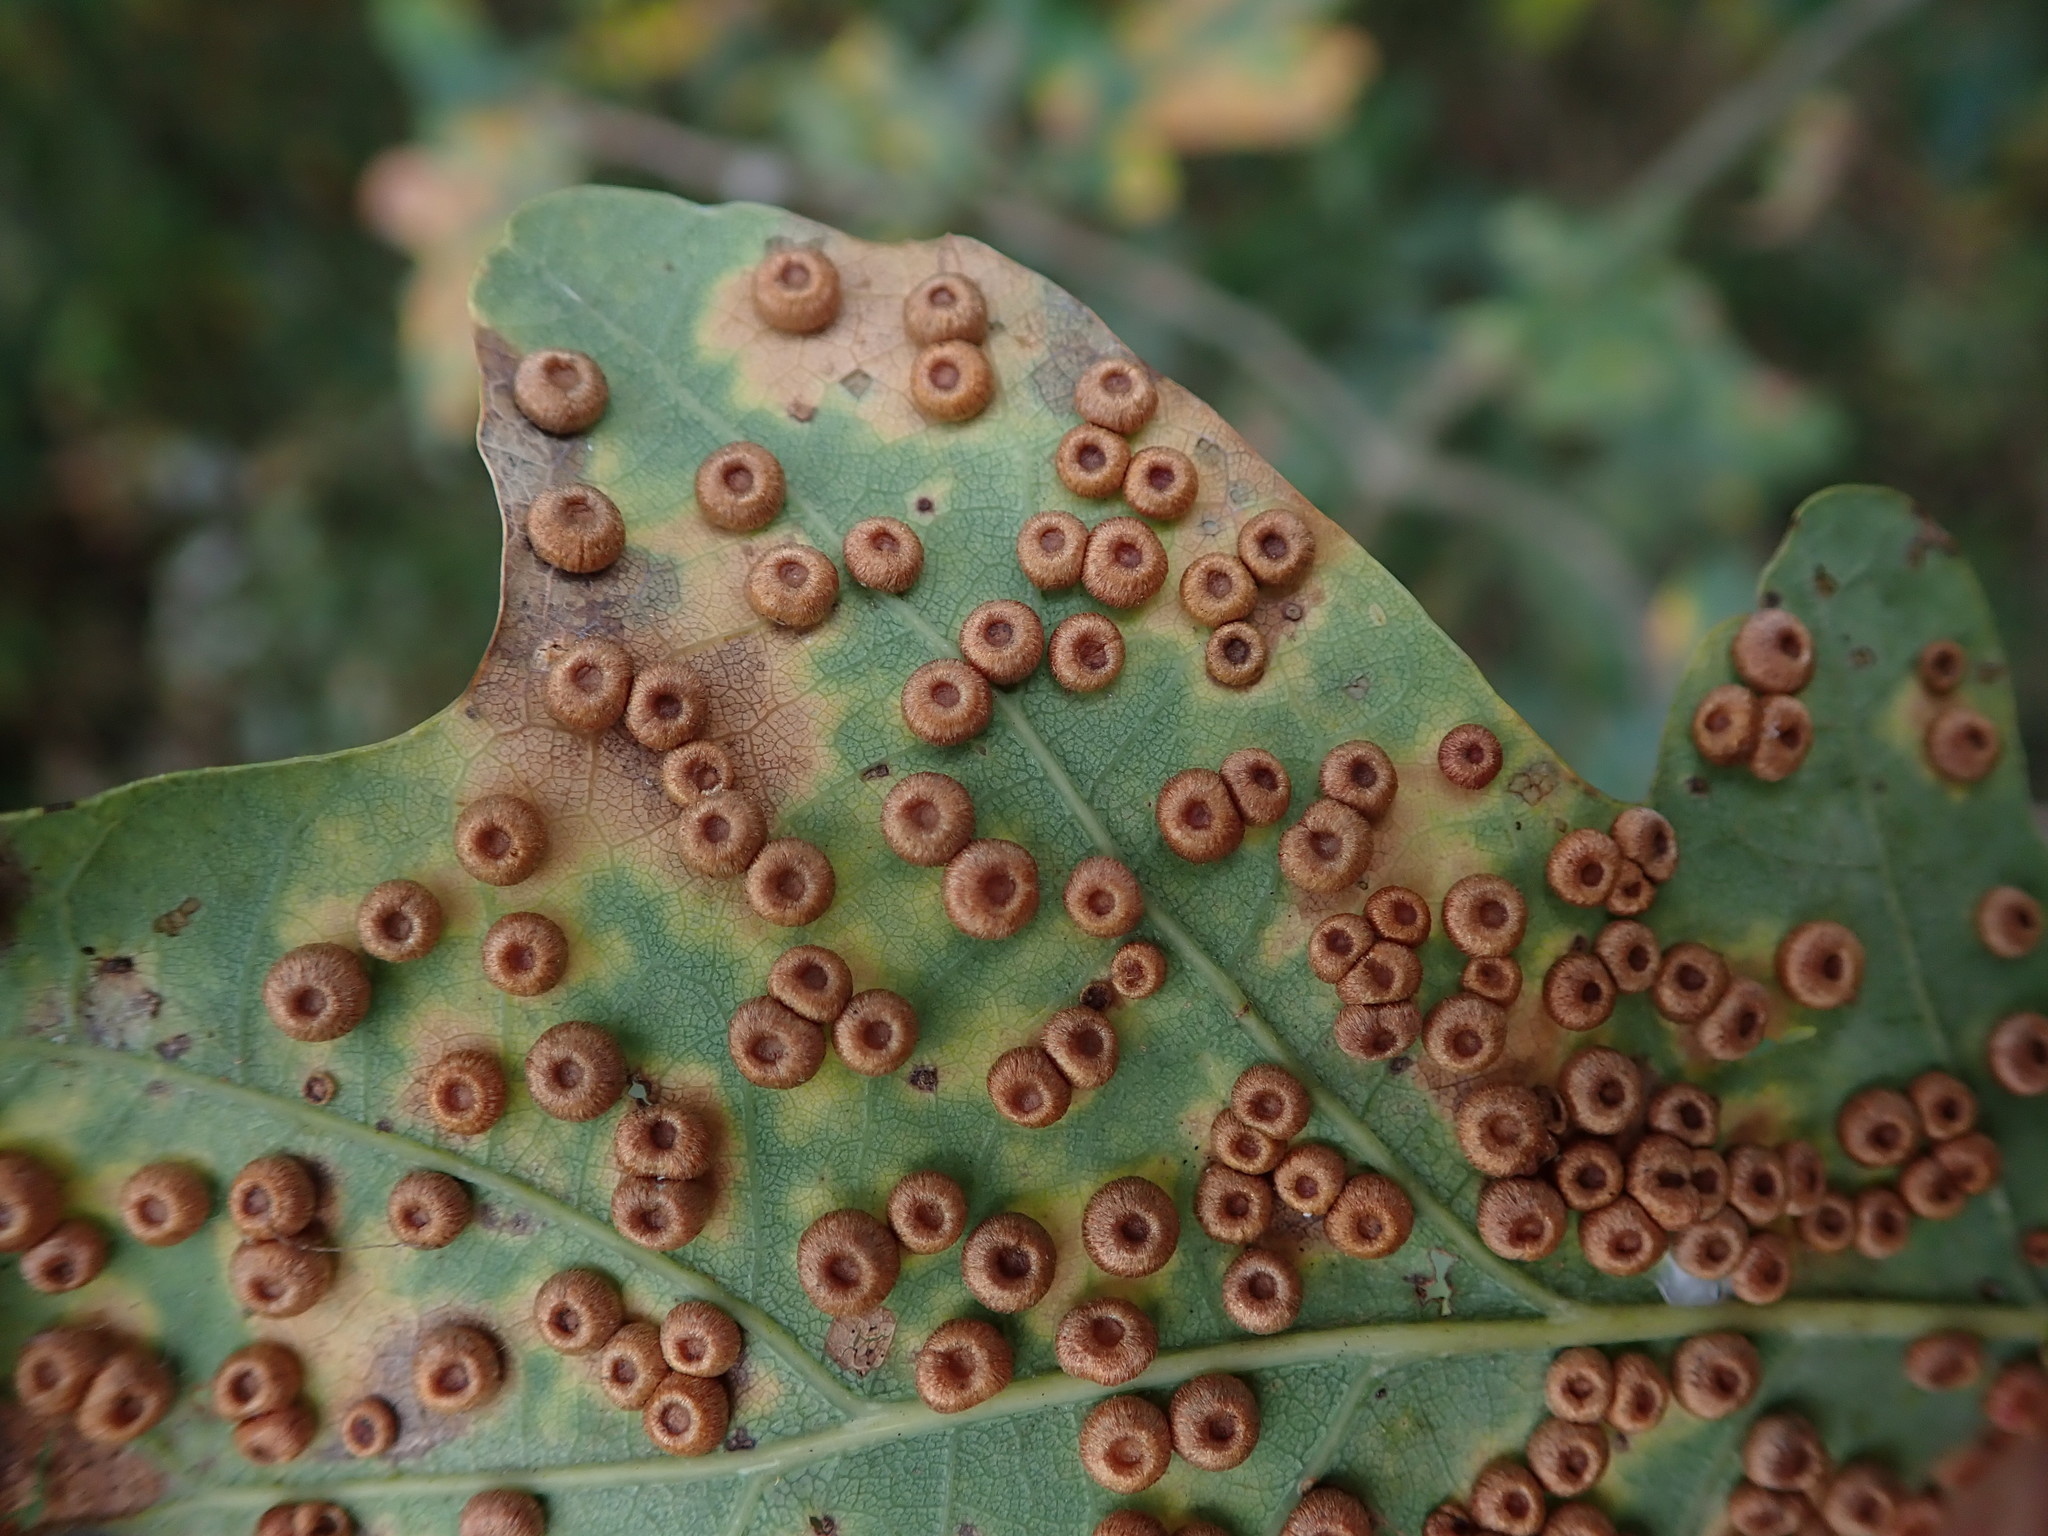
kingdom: Animalia
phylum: Arthropoda
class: Insecta
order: Hymenoptera
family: Cynipidae
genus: Neuroterus
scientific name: Neuroterus numismalis
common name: Silk-button spangle gall
